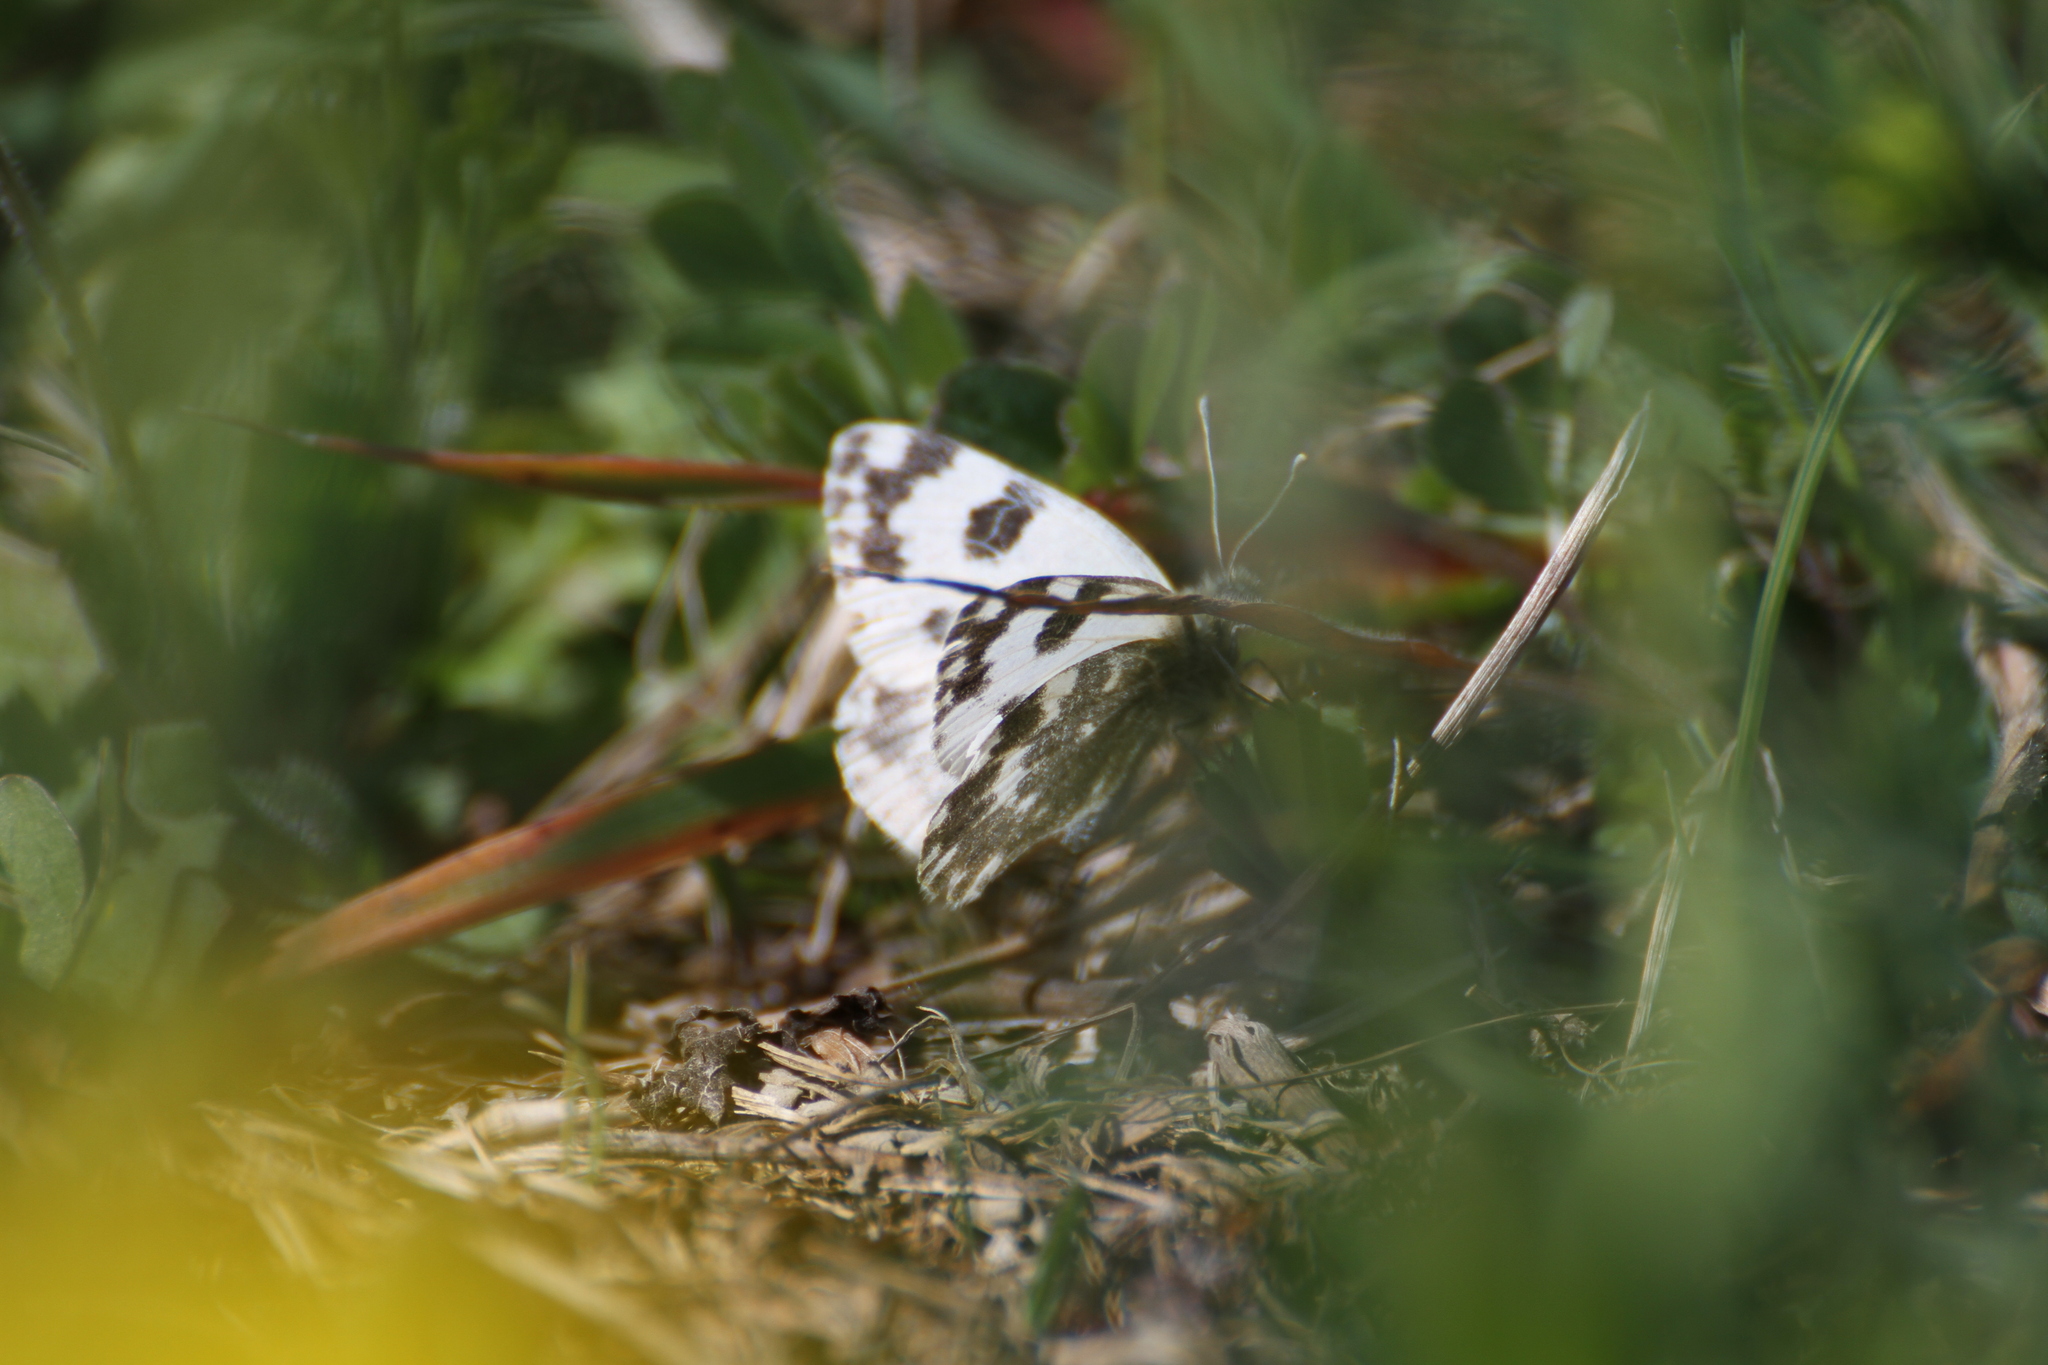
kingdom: Animalia
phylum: Arthropoda
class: Insecta
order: Lepidoptera
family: Pieridae
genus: Pontia
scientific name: Pontia daplidice
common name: Bath white
